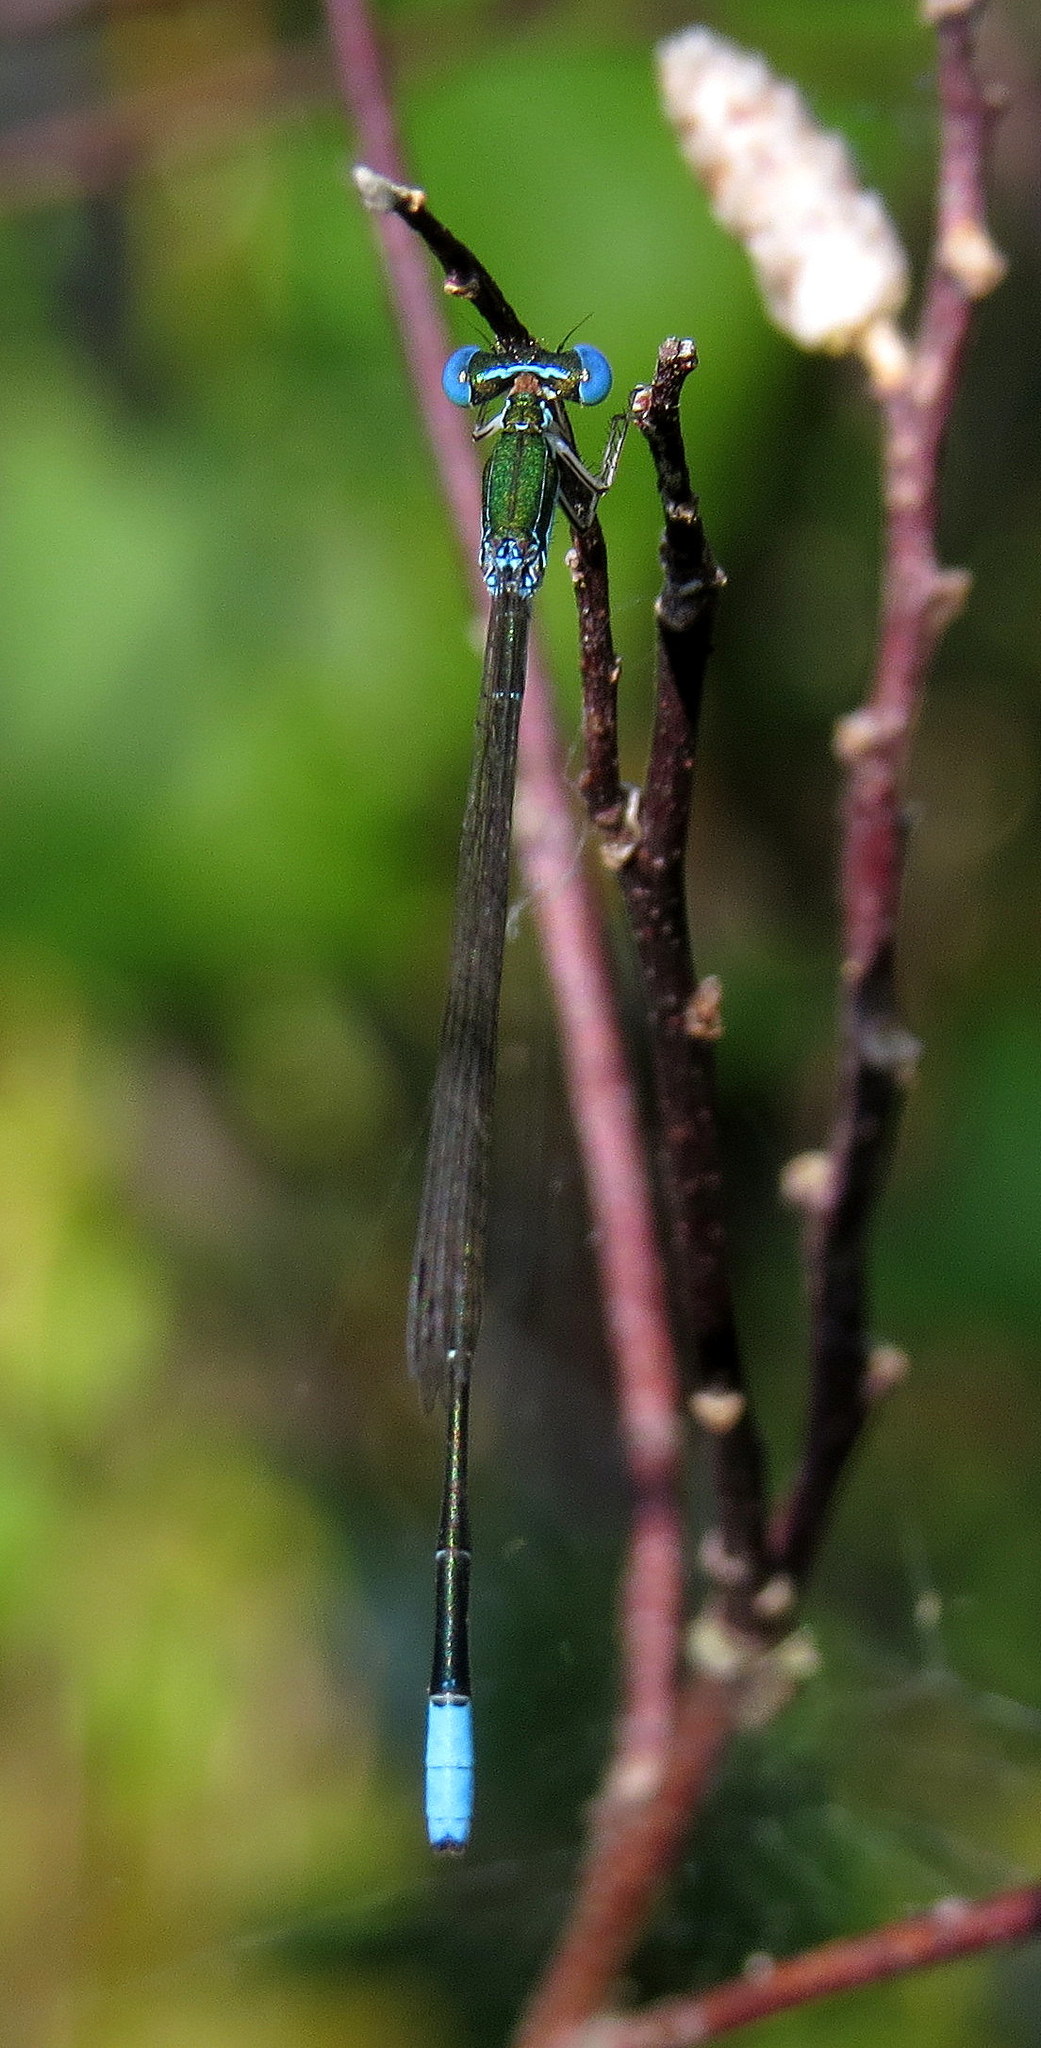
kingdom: Animalia
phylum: Arthropoda
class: Insecta
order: Odonata
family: Coenagrionidae
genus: Nehalennia
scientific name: Nehalennia gracilis
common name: Sphagnum sprite
